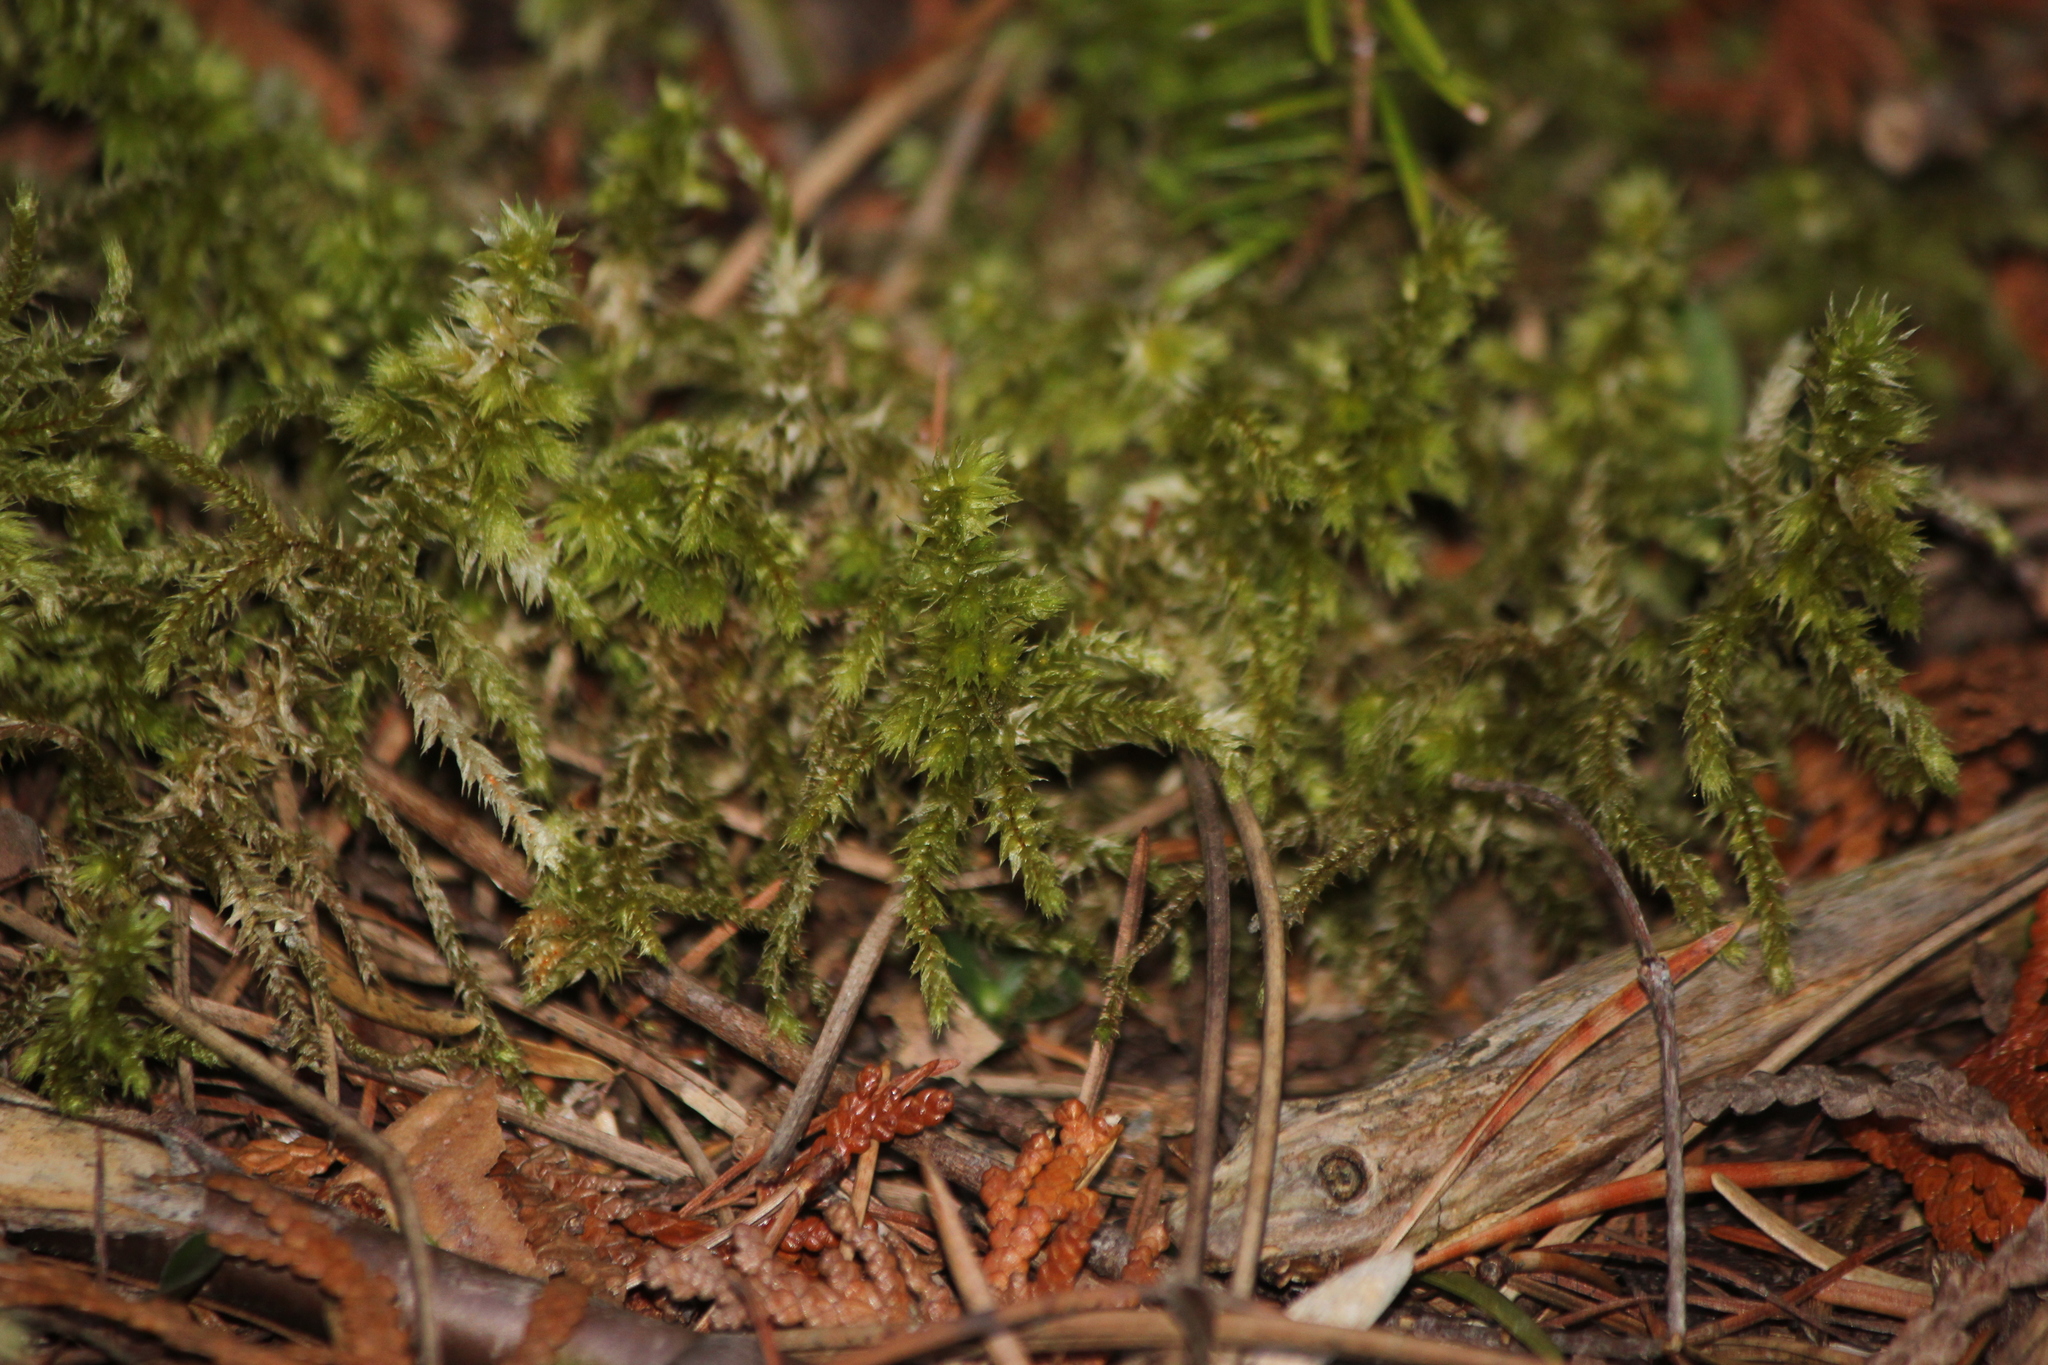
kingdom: Plantae
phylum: Bryophyta
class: Bryopsida
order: Hypnales
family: Hylocomiaceae
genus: Hylocomiadelphus
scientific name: Hylocomiadelphus triquetrus
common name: Rough goose neck moss
